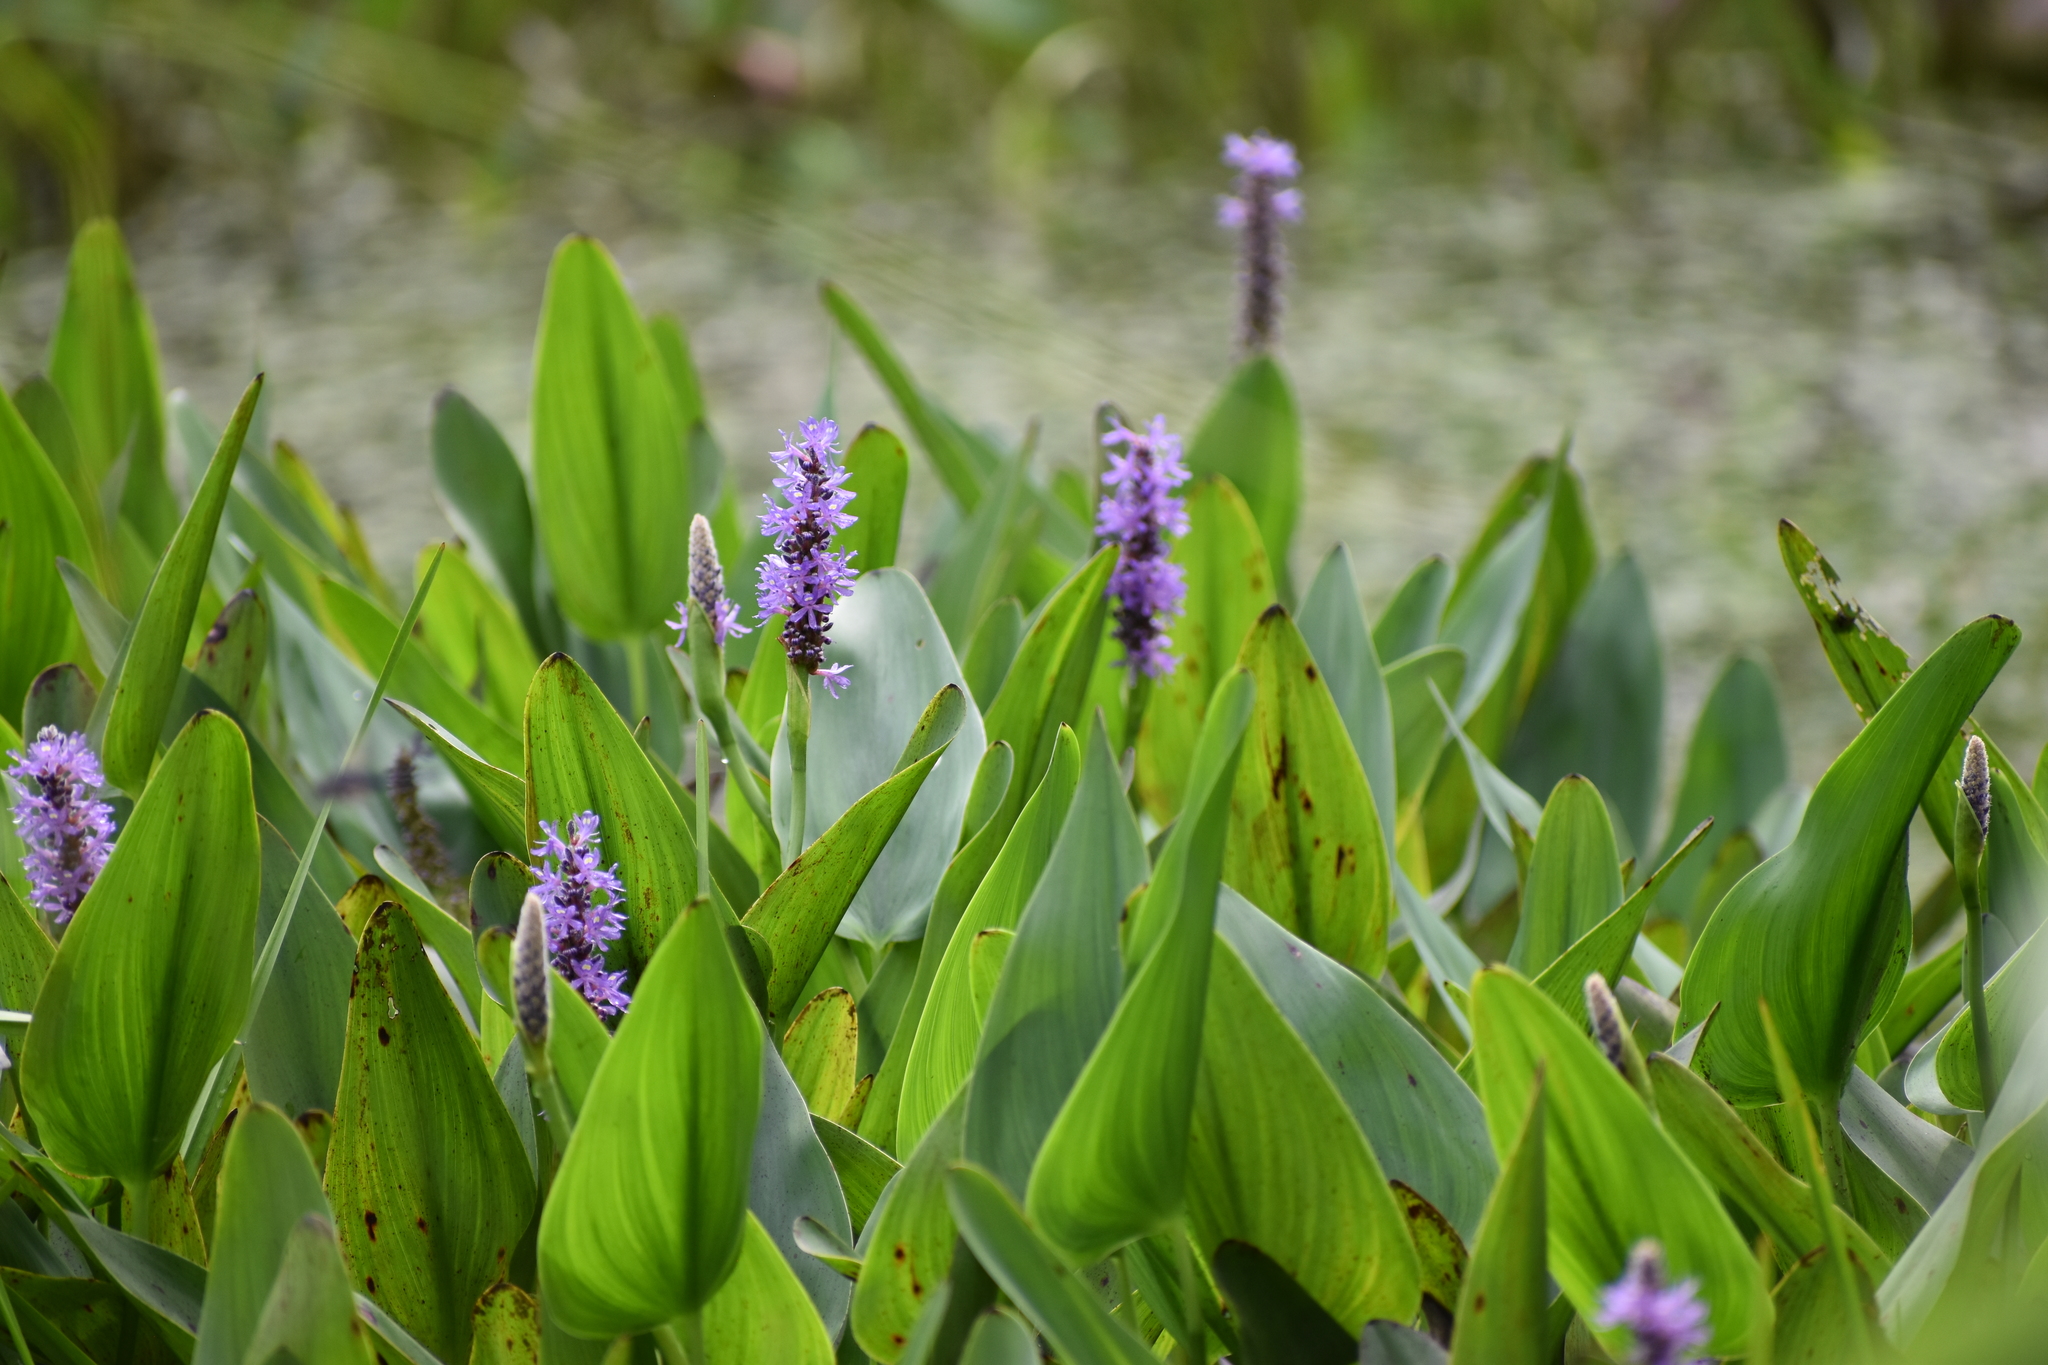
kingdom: Plantae
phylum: Tracheophyta
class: Liliopsida
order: Commelinales
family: Pontederiaceae
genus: Pontederia
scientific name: Pontederia cordata
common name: Pickerelweed
